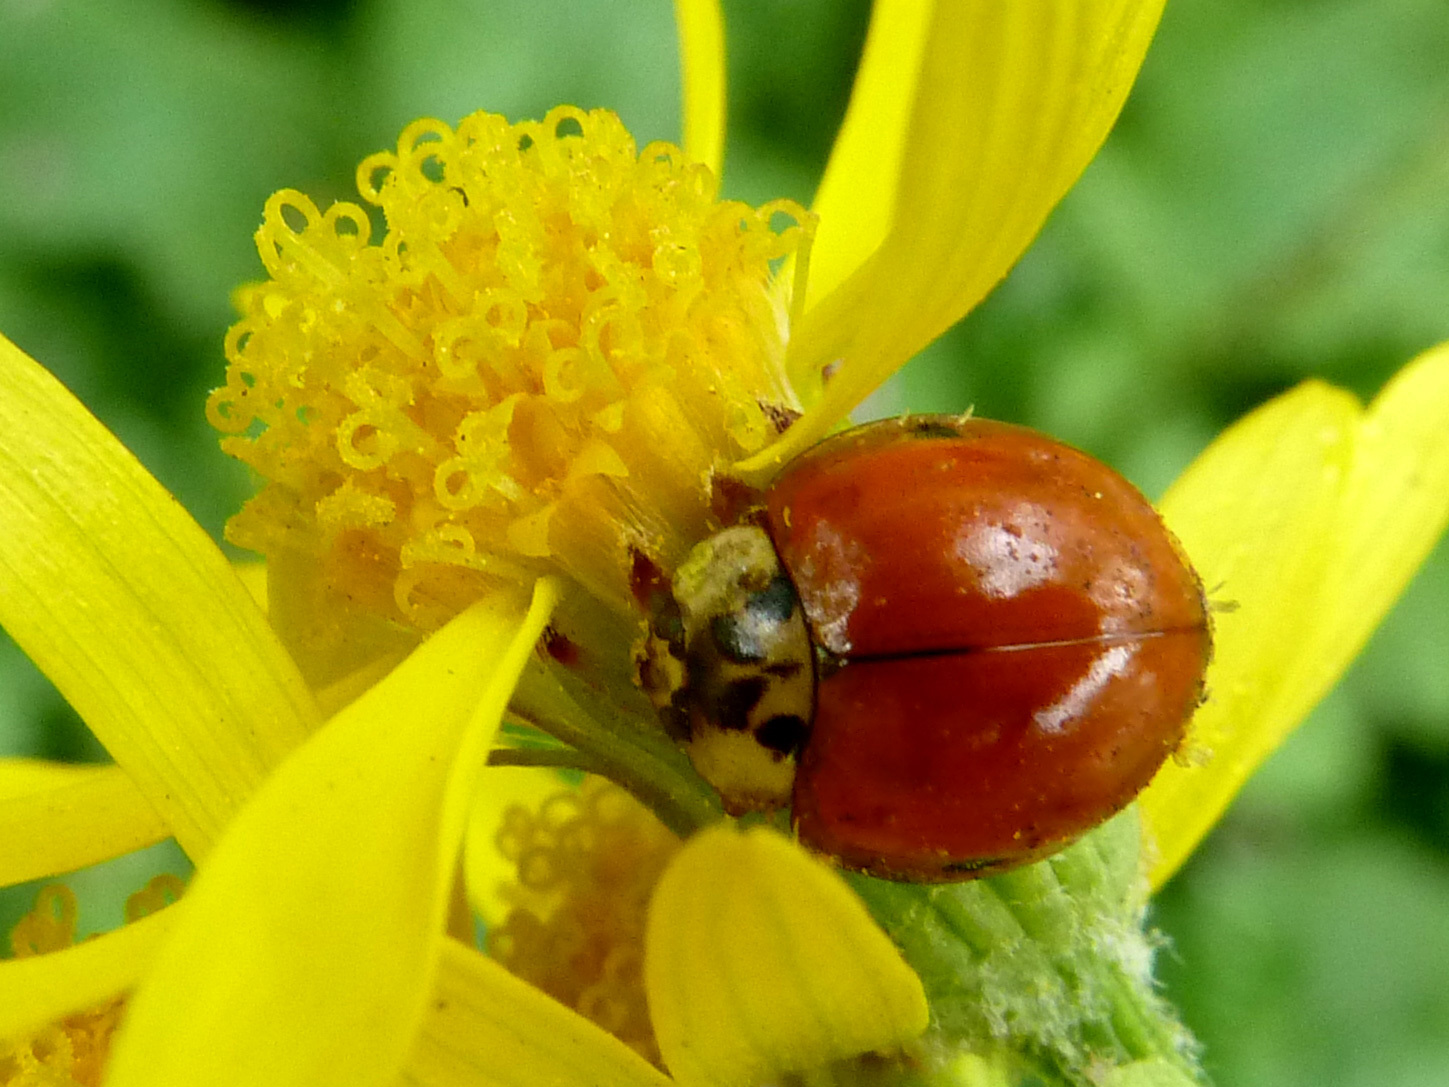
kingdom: Animalia
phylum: Arthropoda
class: Insecta
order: Coleoptera
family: Coccinellidae
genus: Harmonia
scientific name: Harmonia axyridis
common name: Harlequin ladybird
